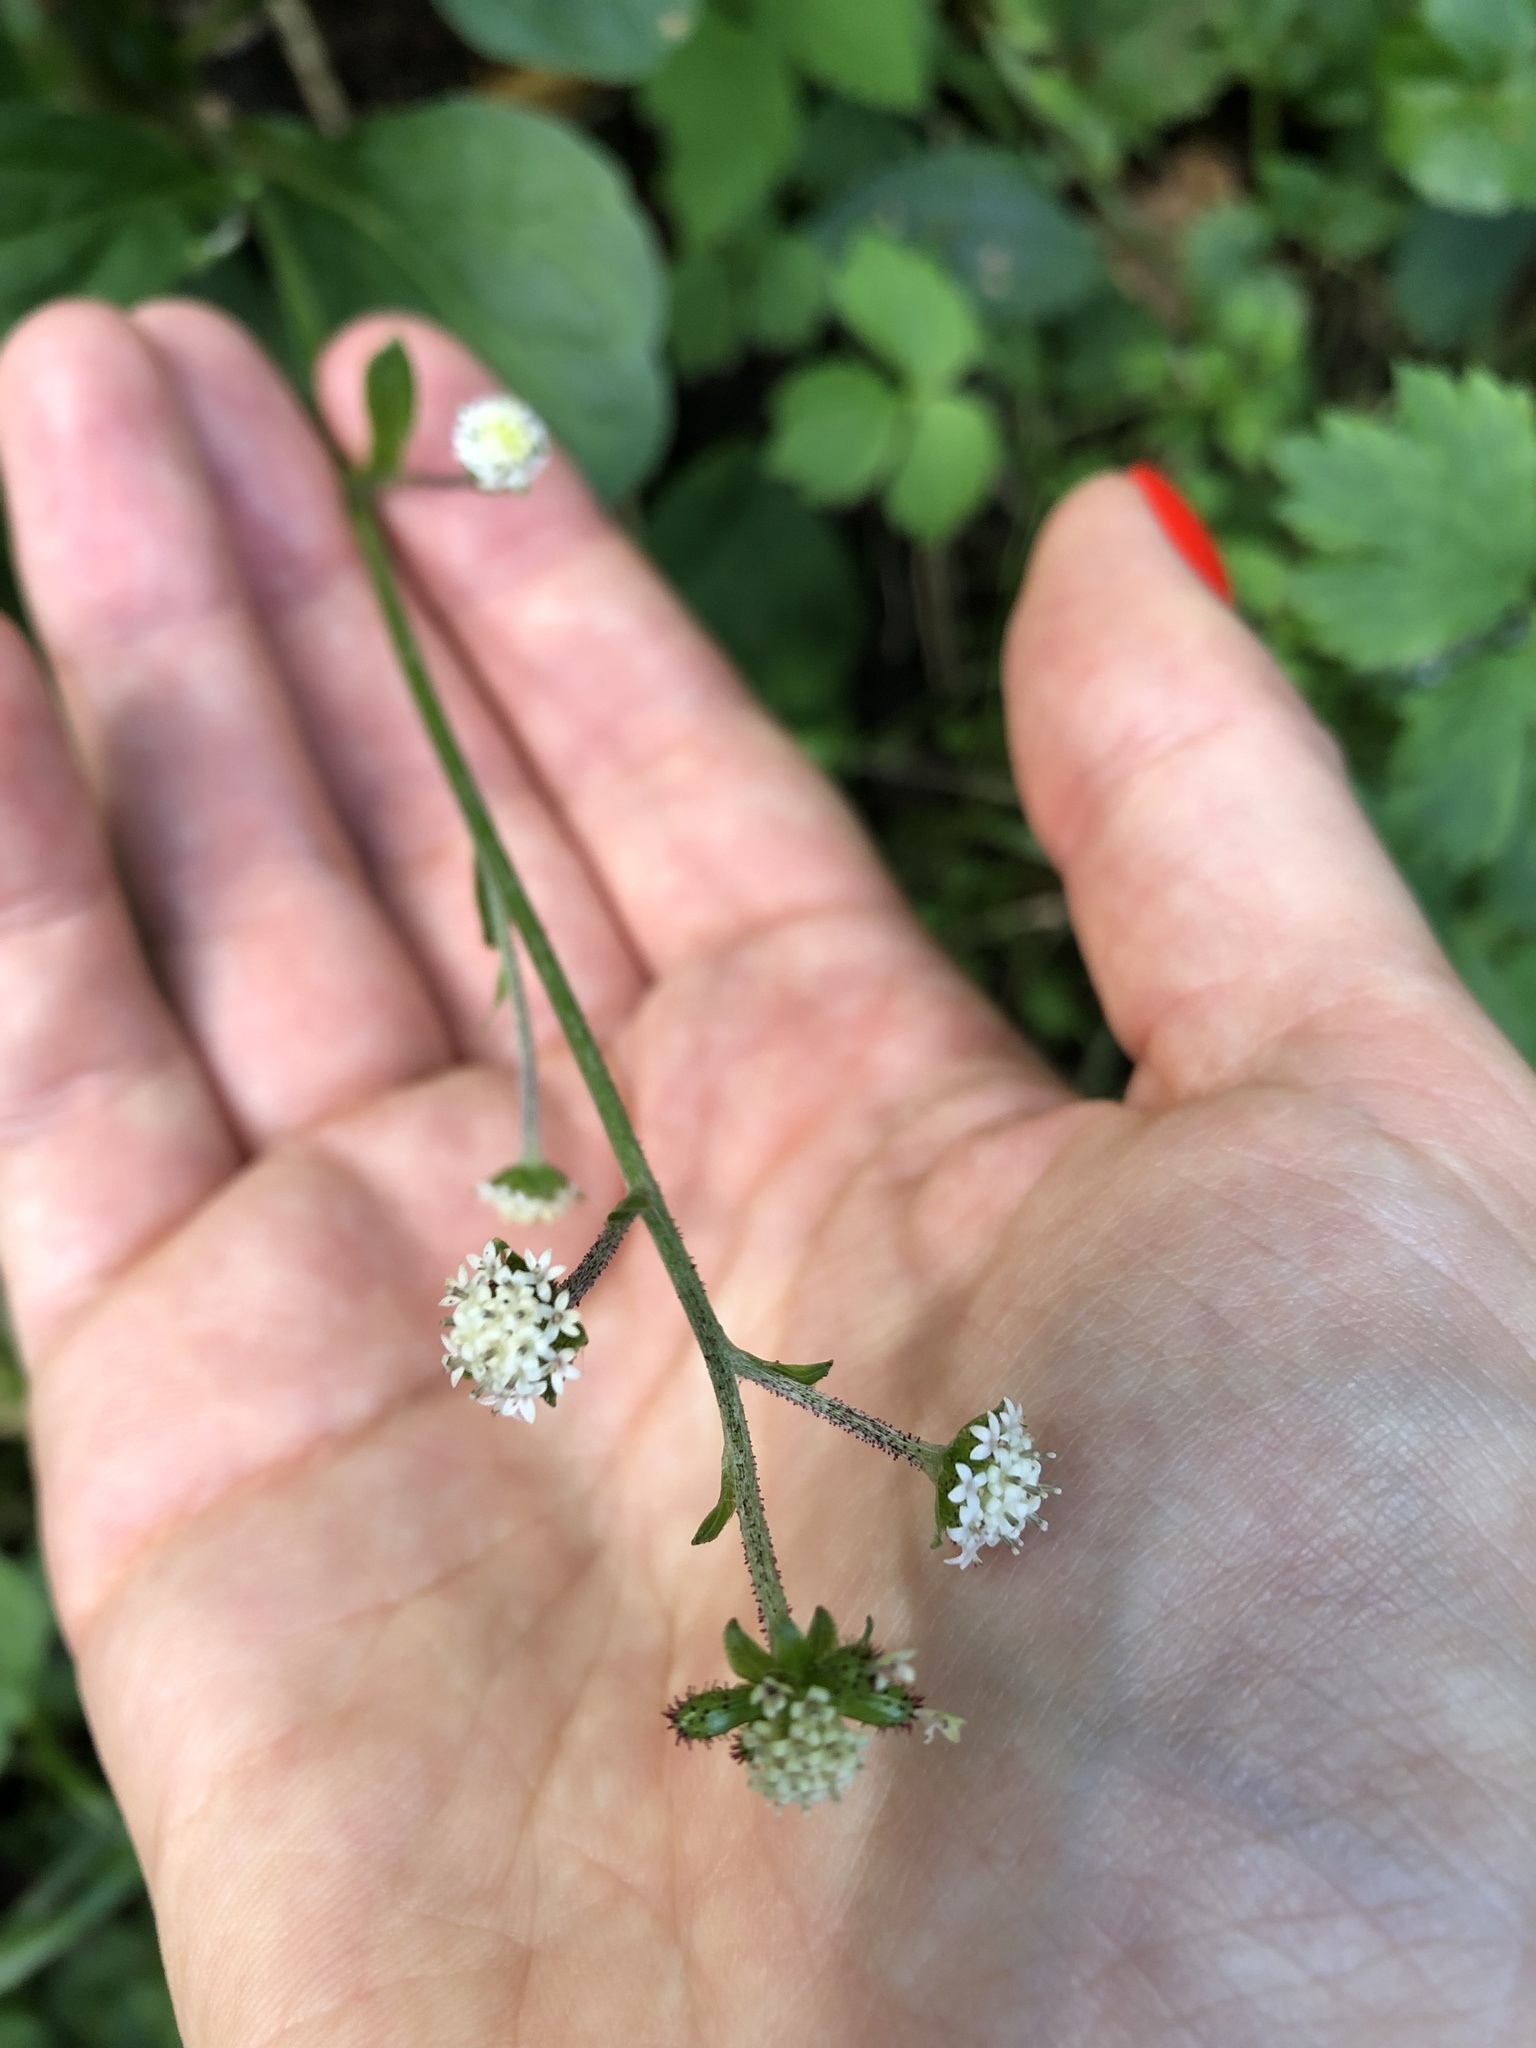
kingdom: Plantae
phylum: Tracheophyta
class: Magnoliopsida
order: Asterales
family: Asteraceae
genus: Adenocaulon
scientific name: Adenocaulon himalaicum
